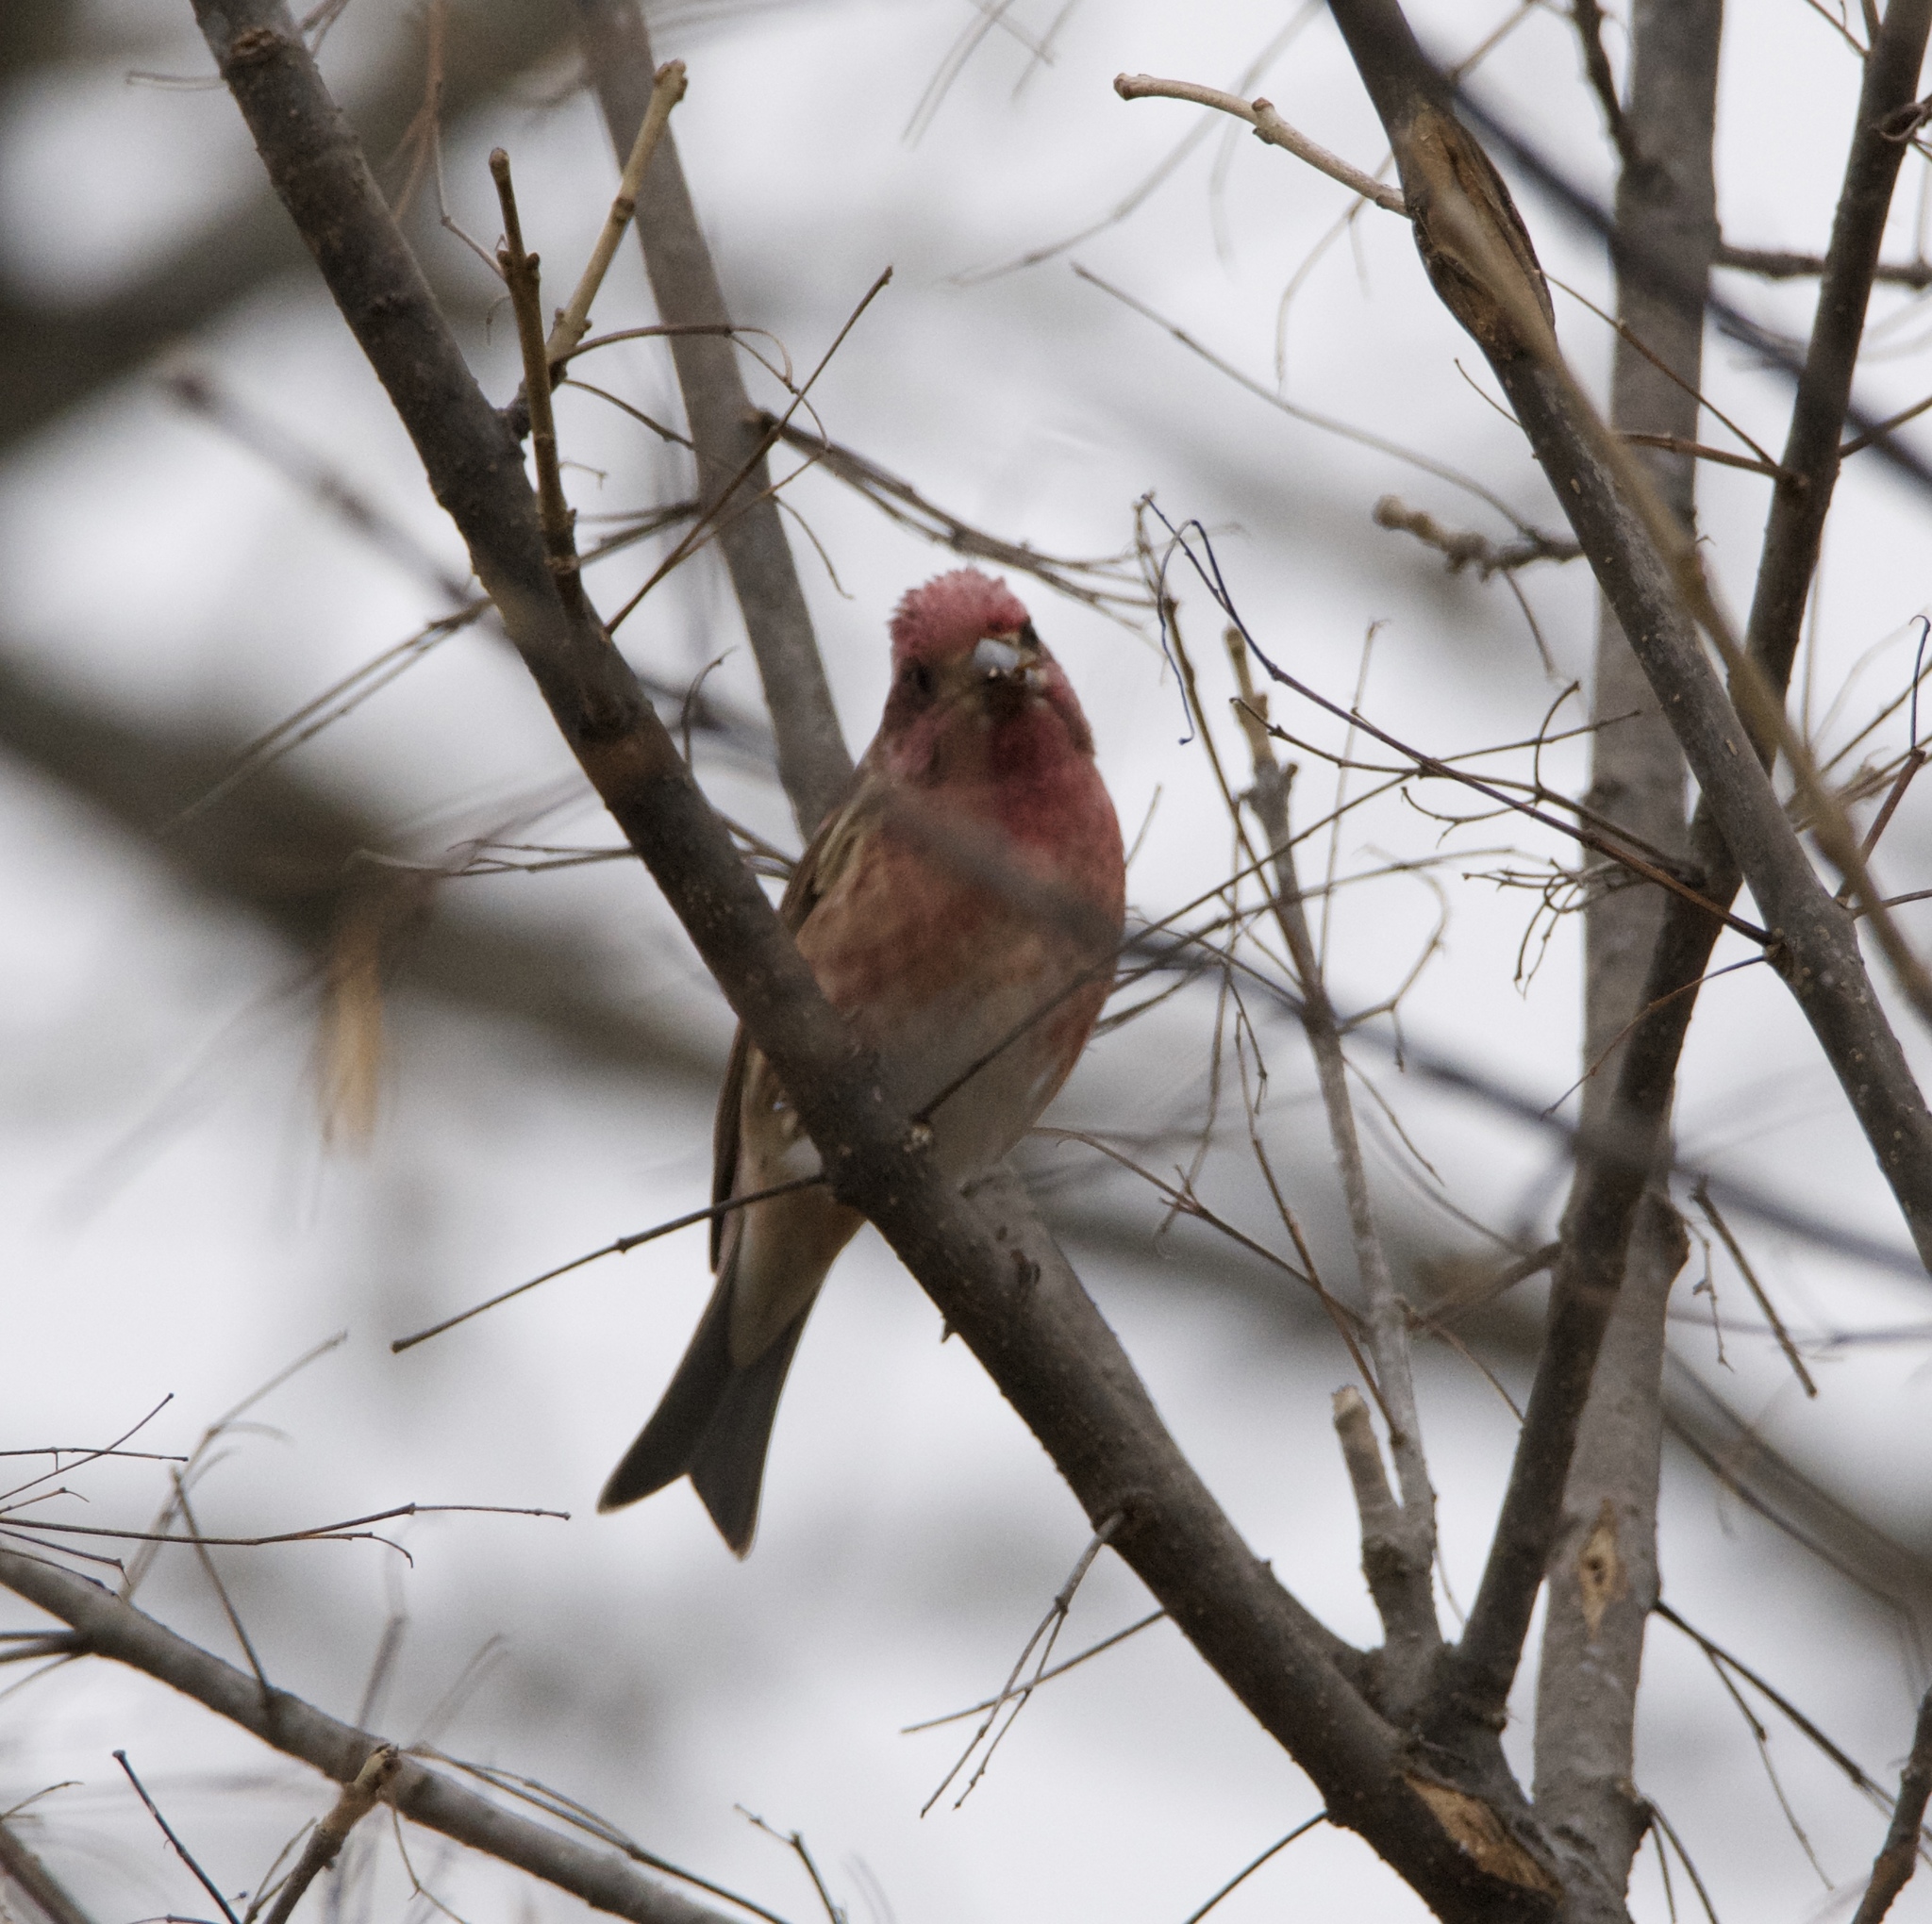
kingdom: Animalia
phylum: Chordata
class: Aves
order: Passeriformes
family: Fringillidae
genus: Haemorhous
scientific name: Haemorhous purpureus
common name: Purple finch
